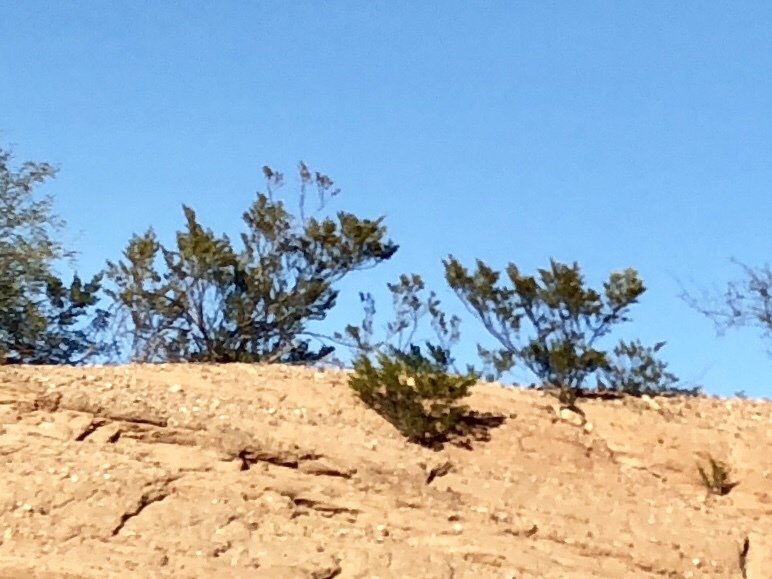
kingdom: Plantae
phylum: Tracheophyta
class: Magnoliopsida
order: Zygophyllales
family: Zygophyllaceae
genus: Larrea
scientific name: Larrea tridentata
